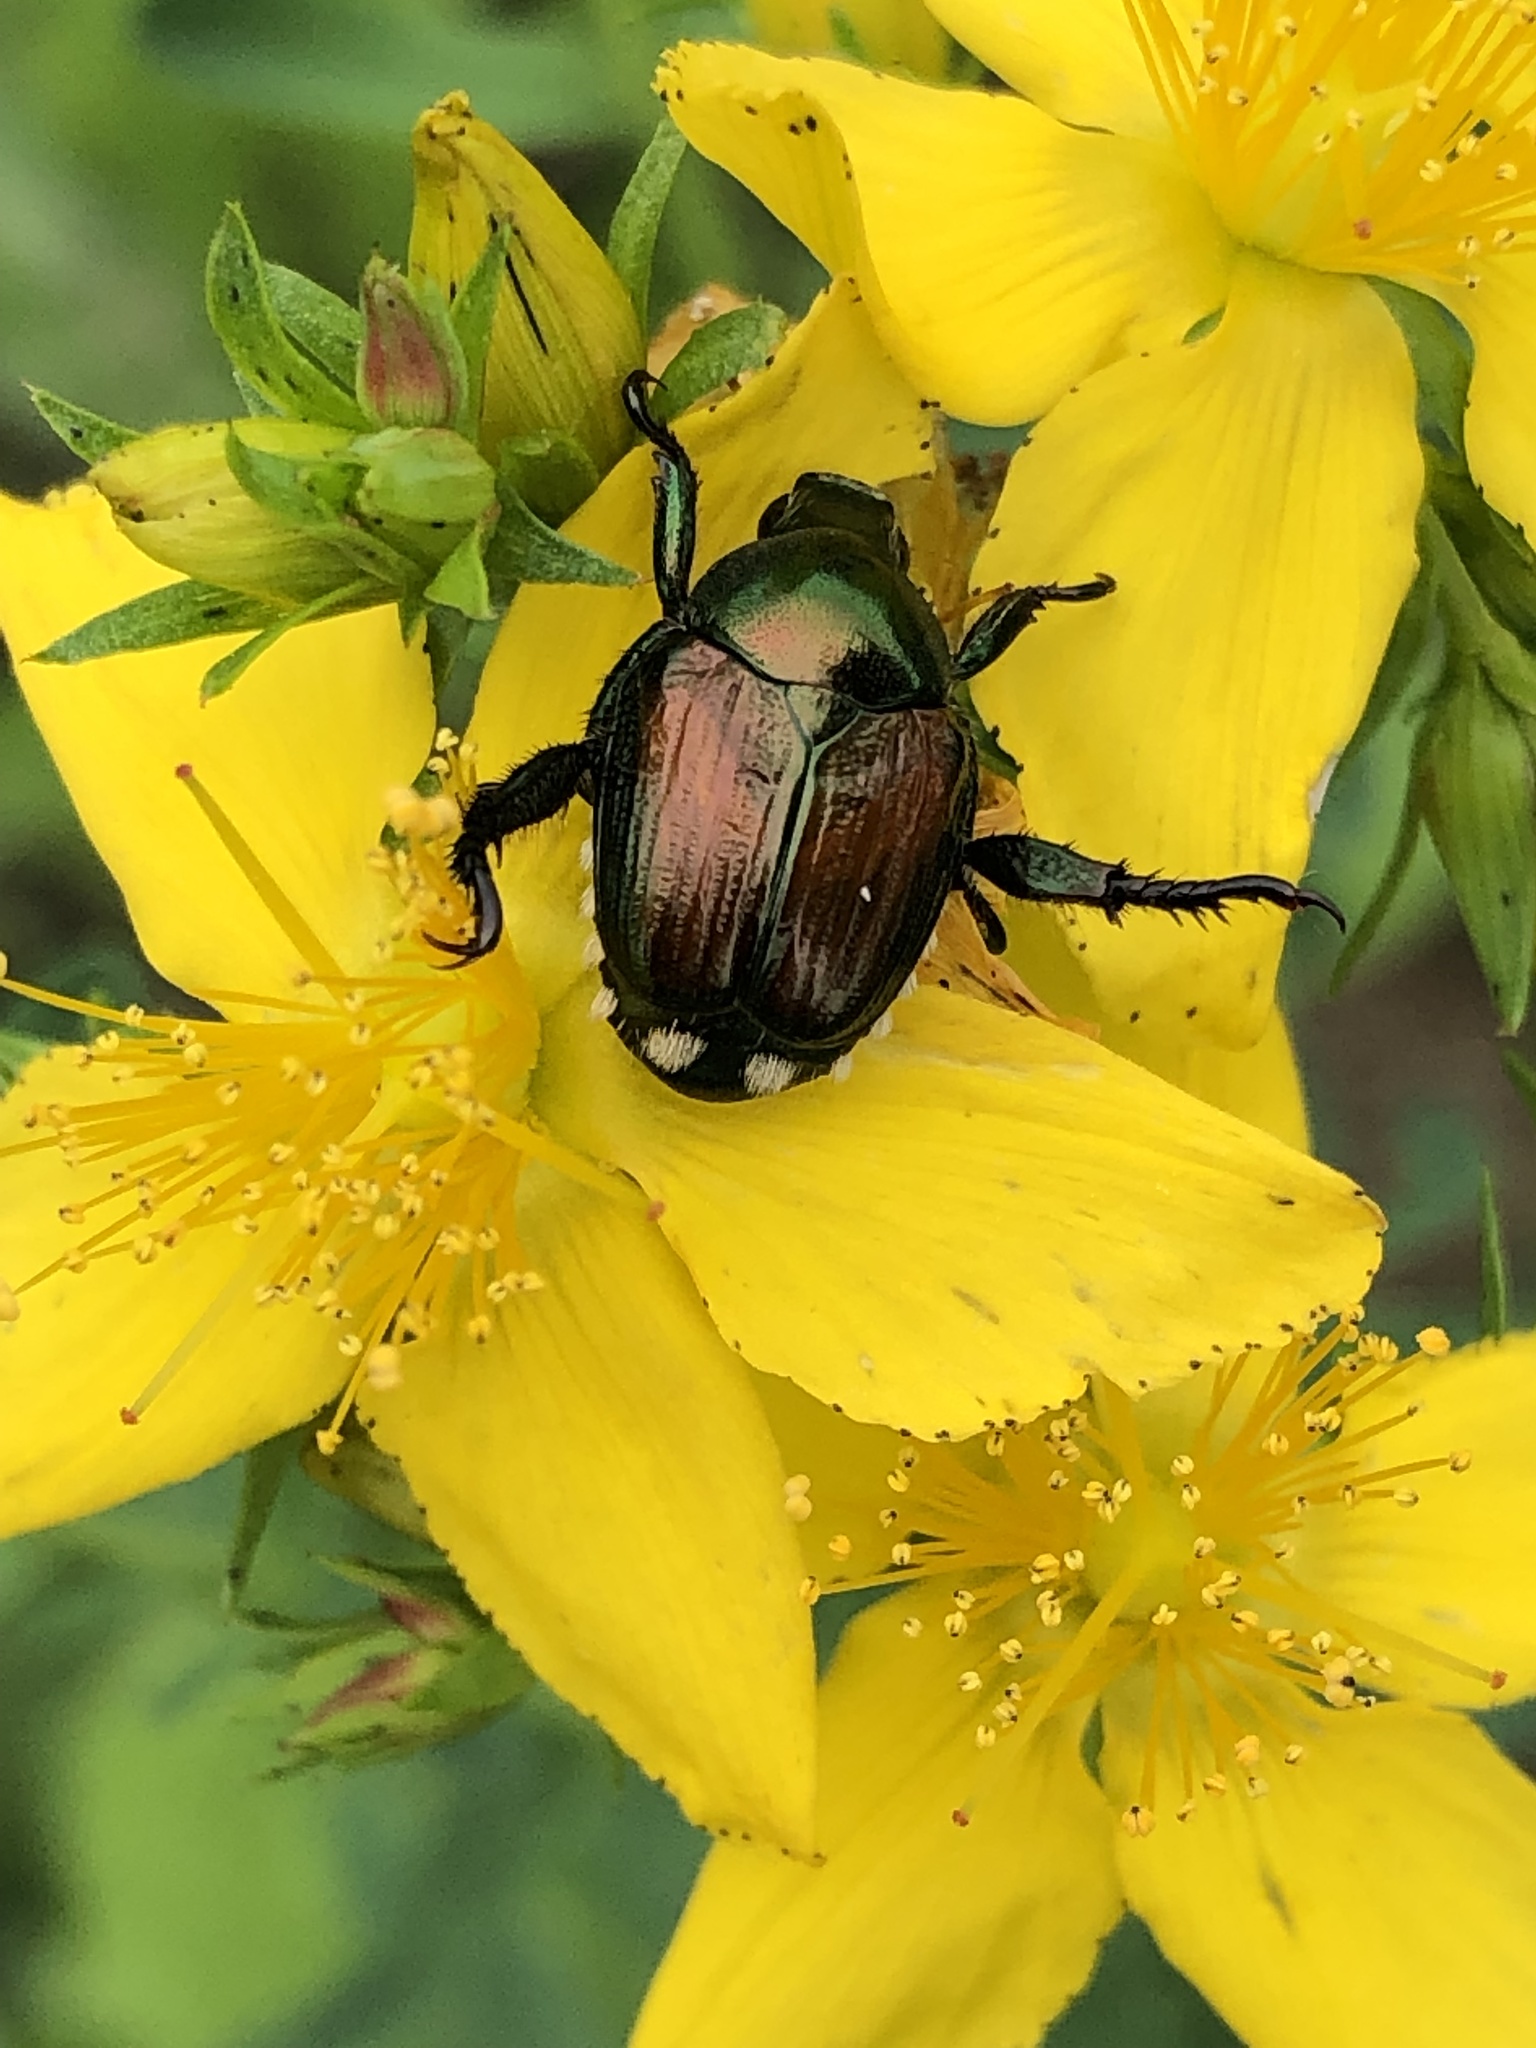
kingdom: Animalia
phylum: Arthropoda
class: Insecta
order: Coleoptera
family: Scarabaeidae
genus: Popillia
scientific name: Popillia japonica
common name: Japanese beetle
